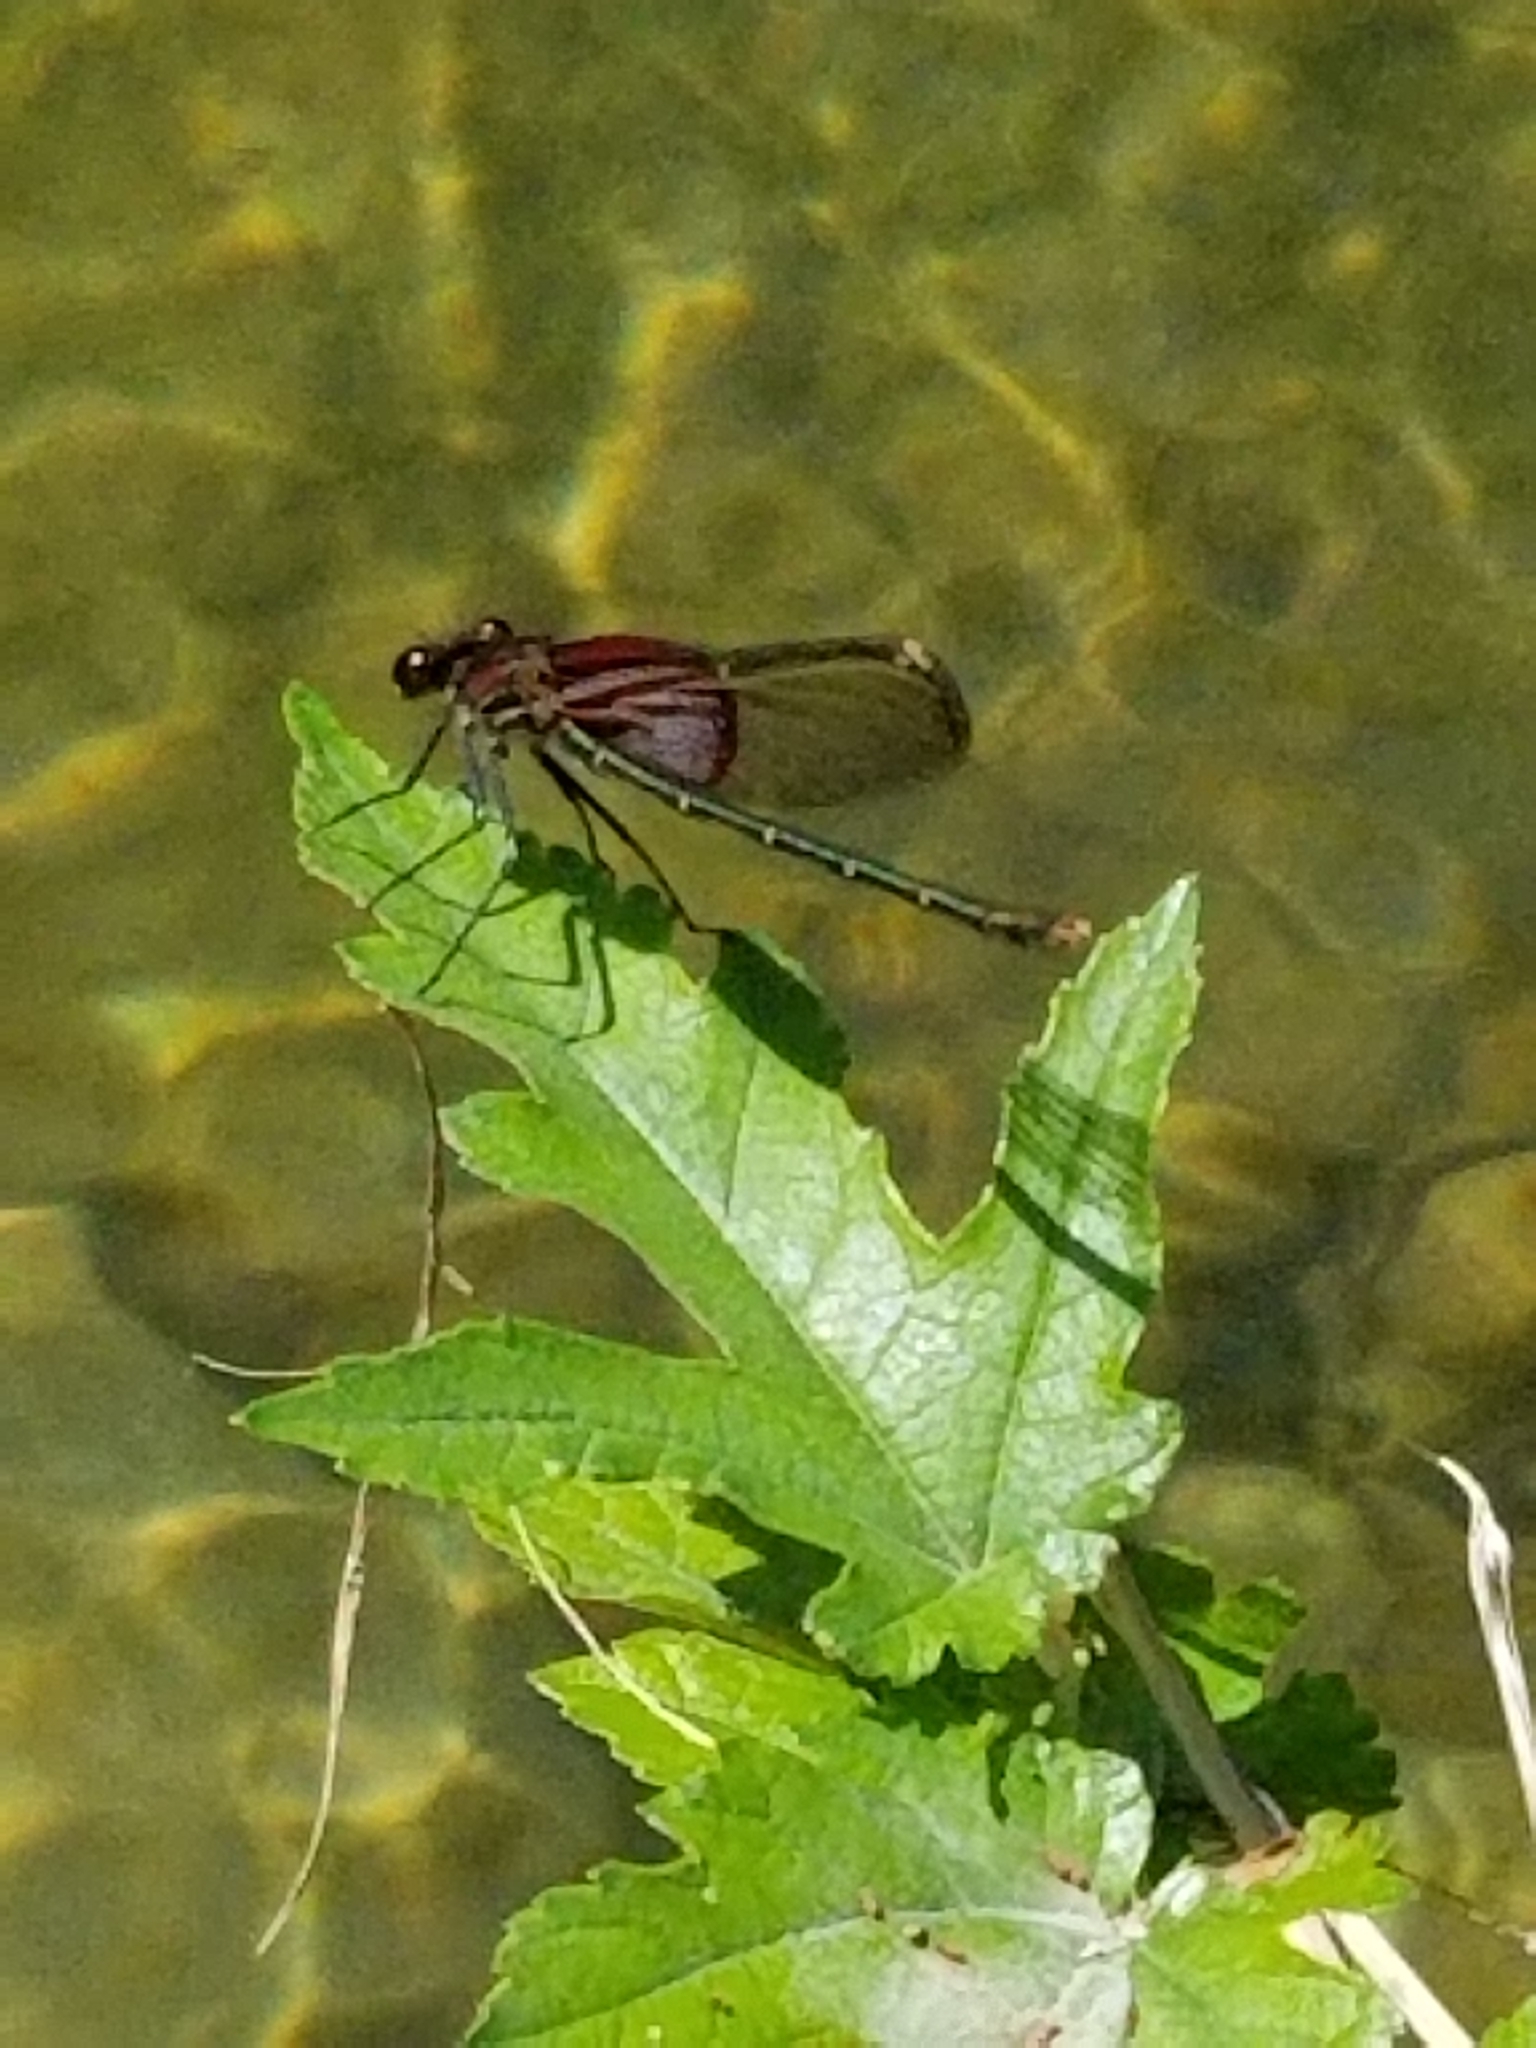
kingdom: Animalia
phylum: Arthropoda
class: Insecta
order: Odonata
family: Calopterygidae
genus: Hetaerina
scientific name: Hetaerina americana
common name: American rubyspot
